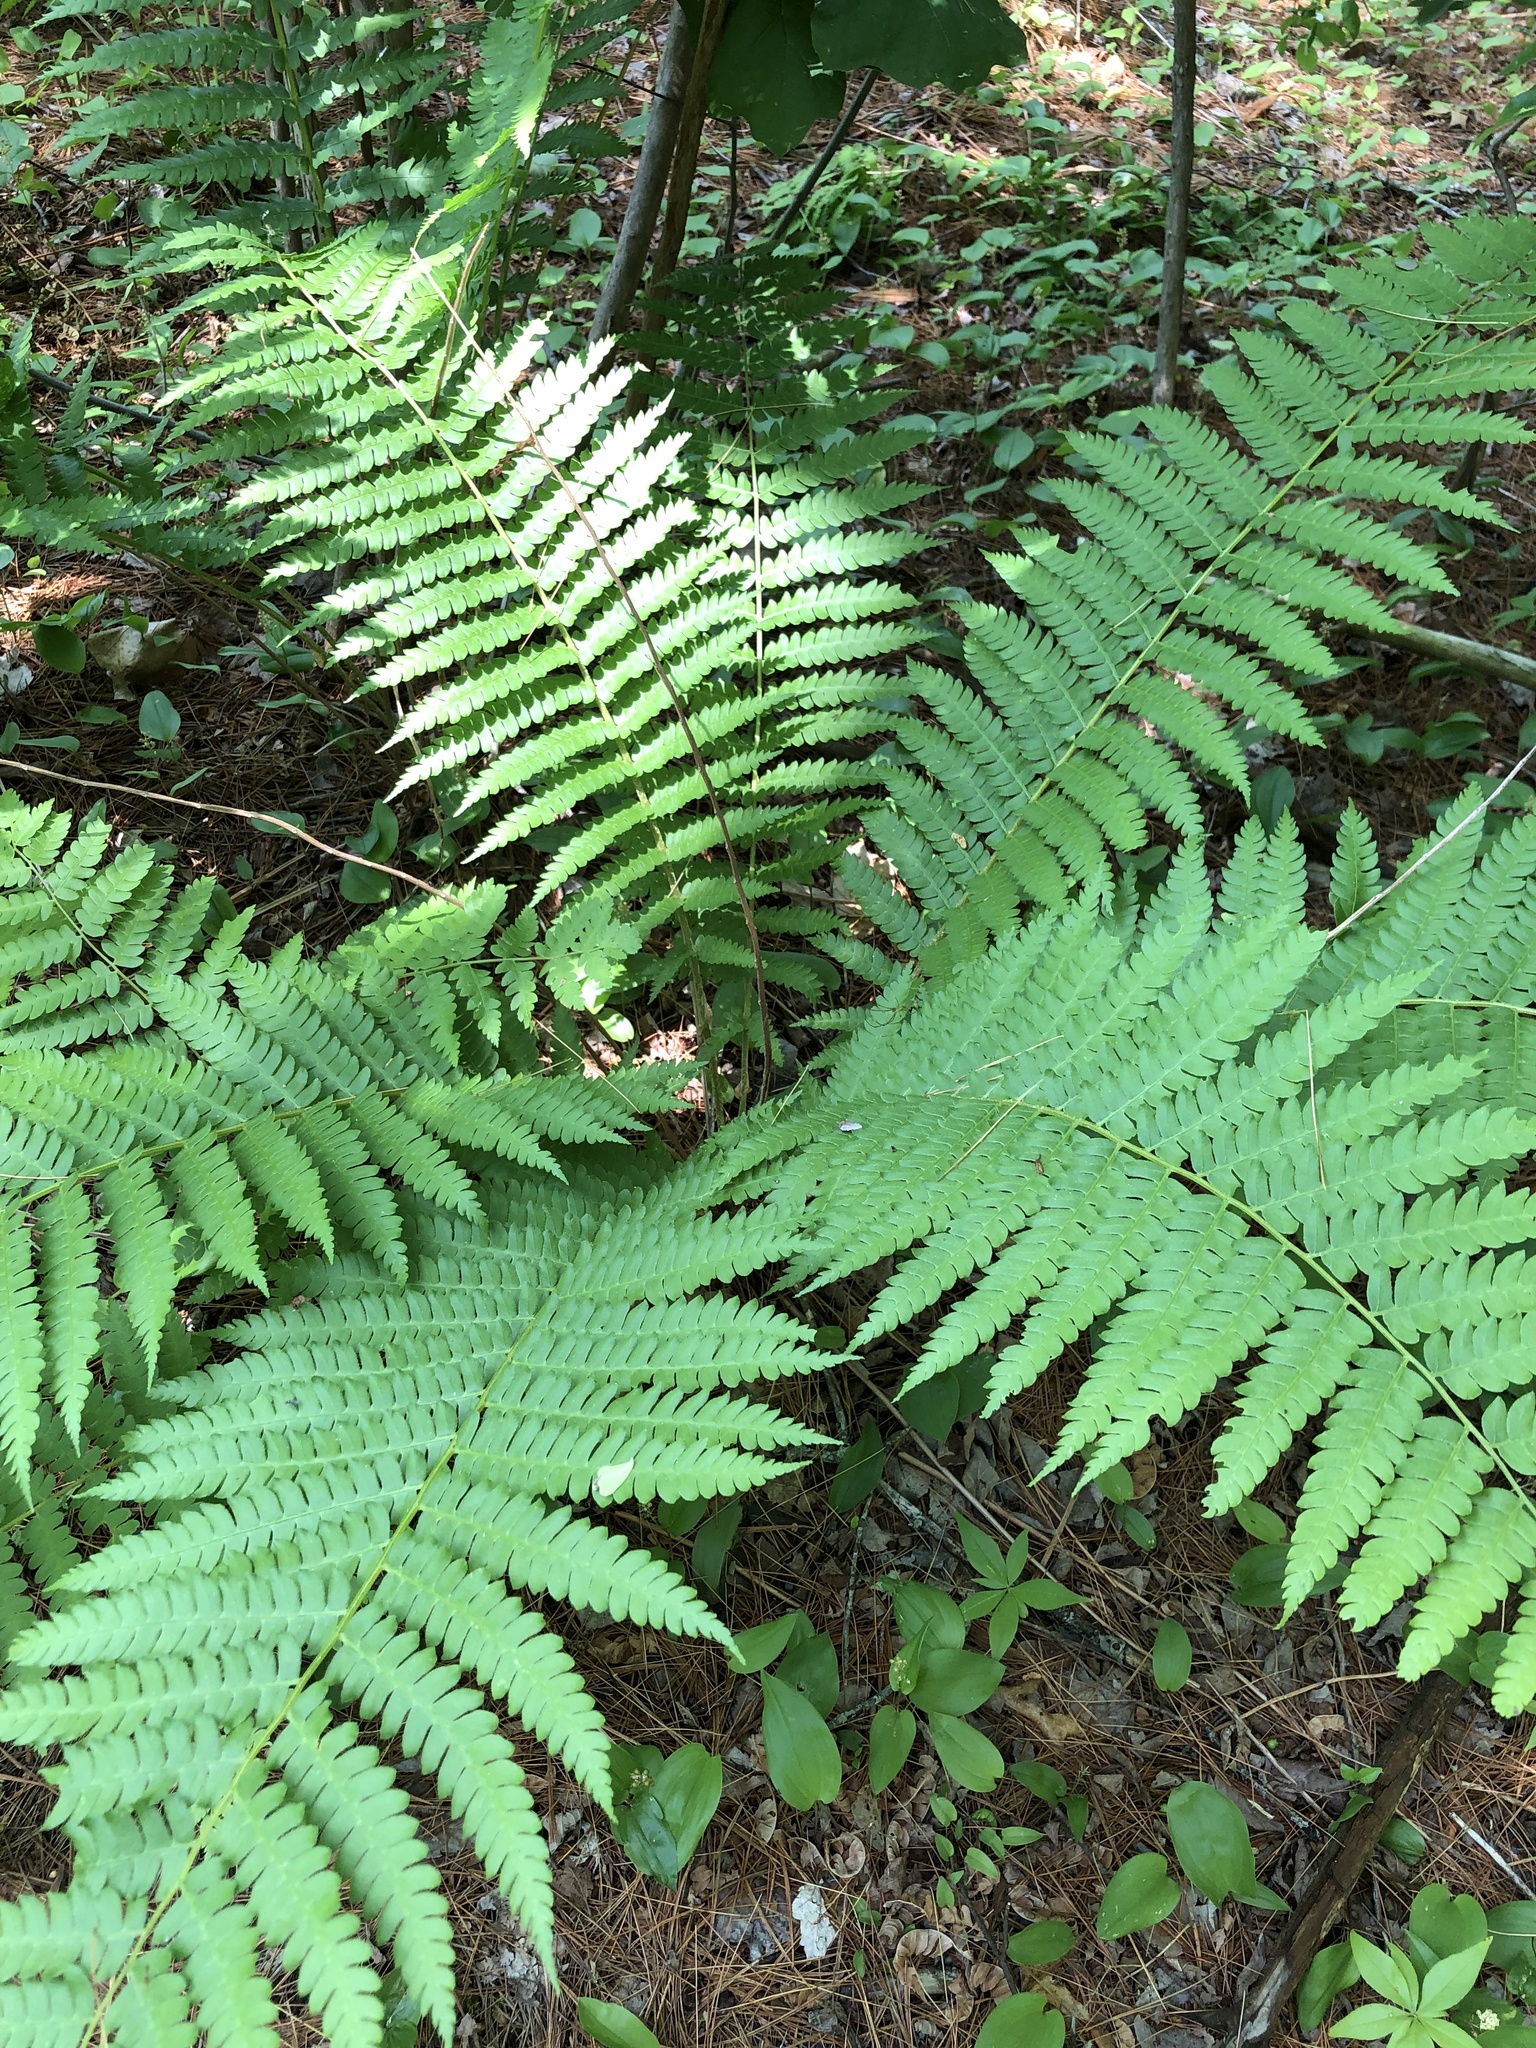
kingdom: Plantae
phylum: Tracheophyta
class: Polypodiopsida
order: Osmundales
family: Osmundaceae
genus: Osmundastrum
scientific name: Osmundastrum cinnamomeum
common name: Cinnamon fern
